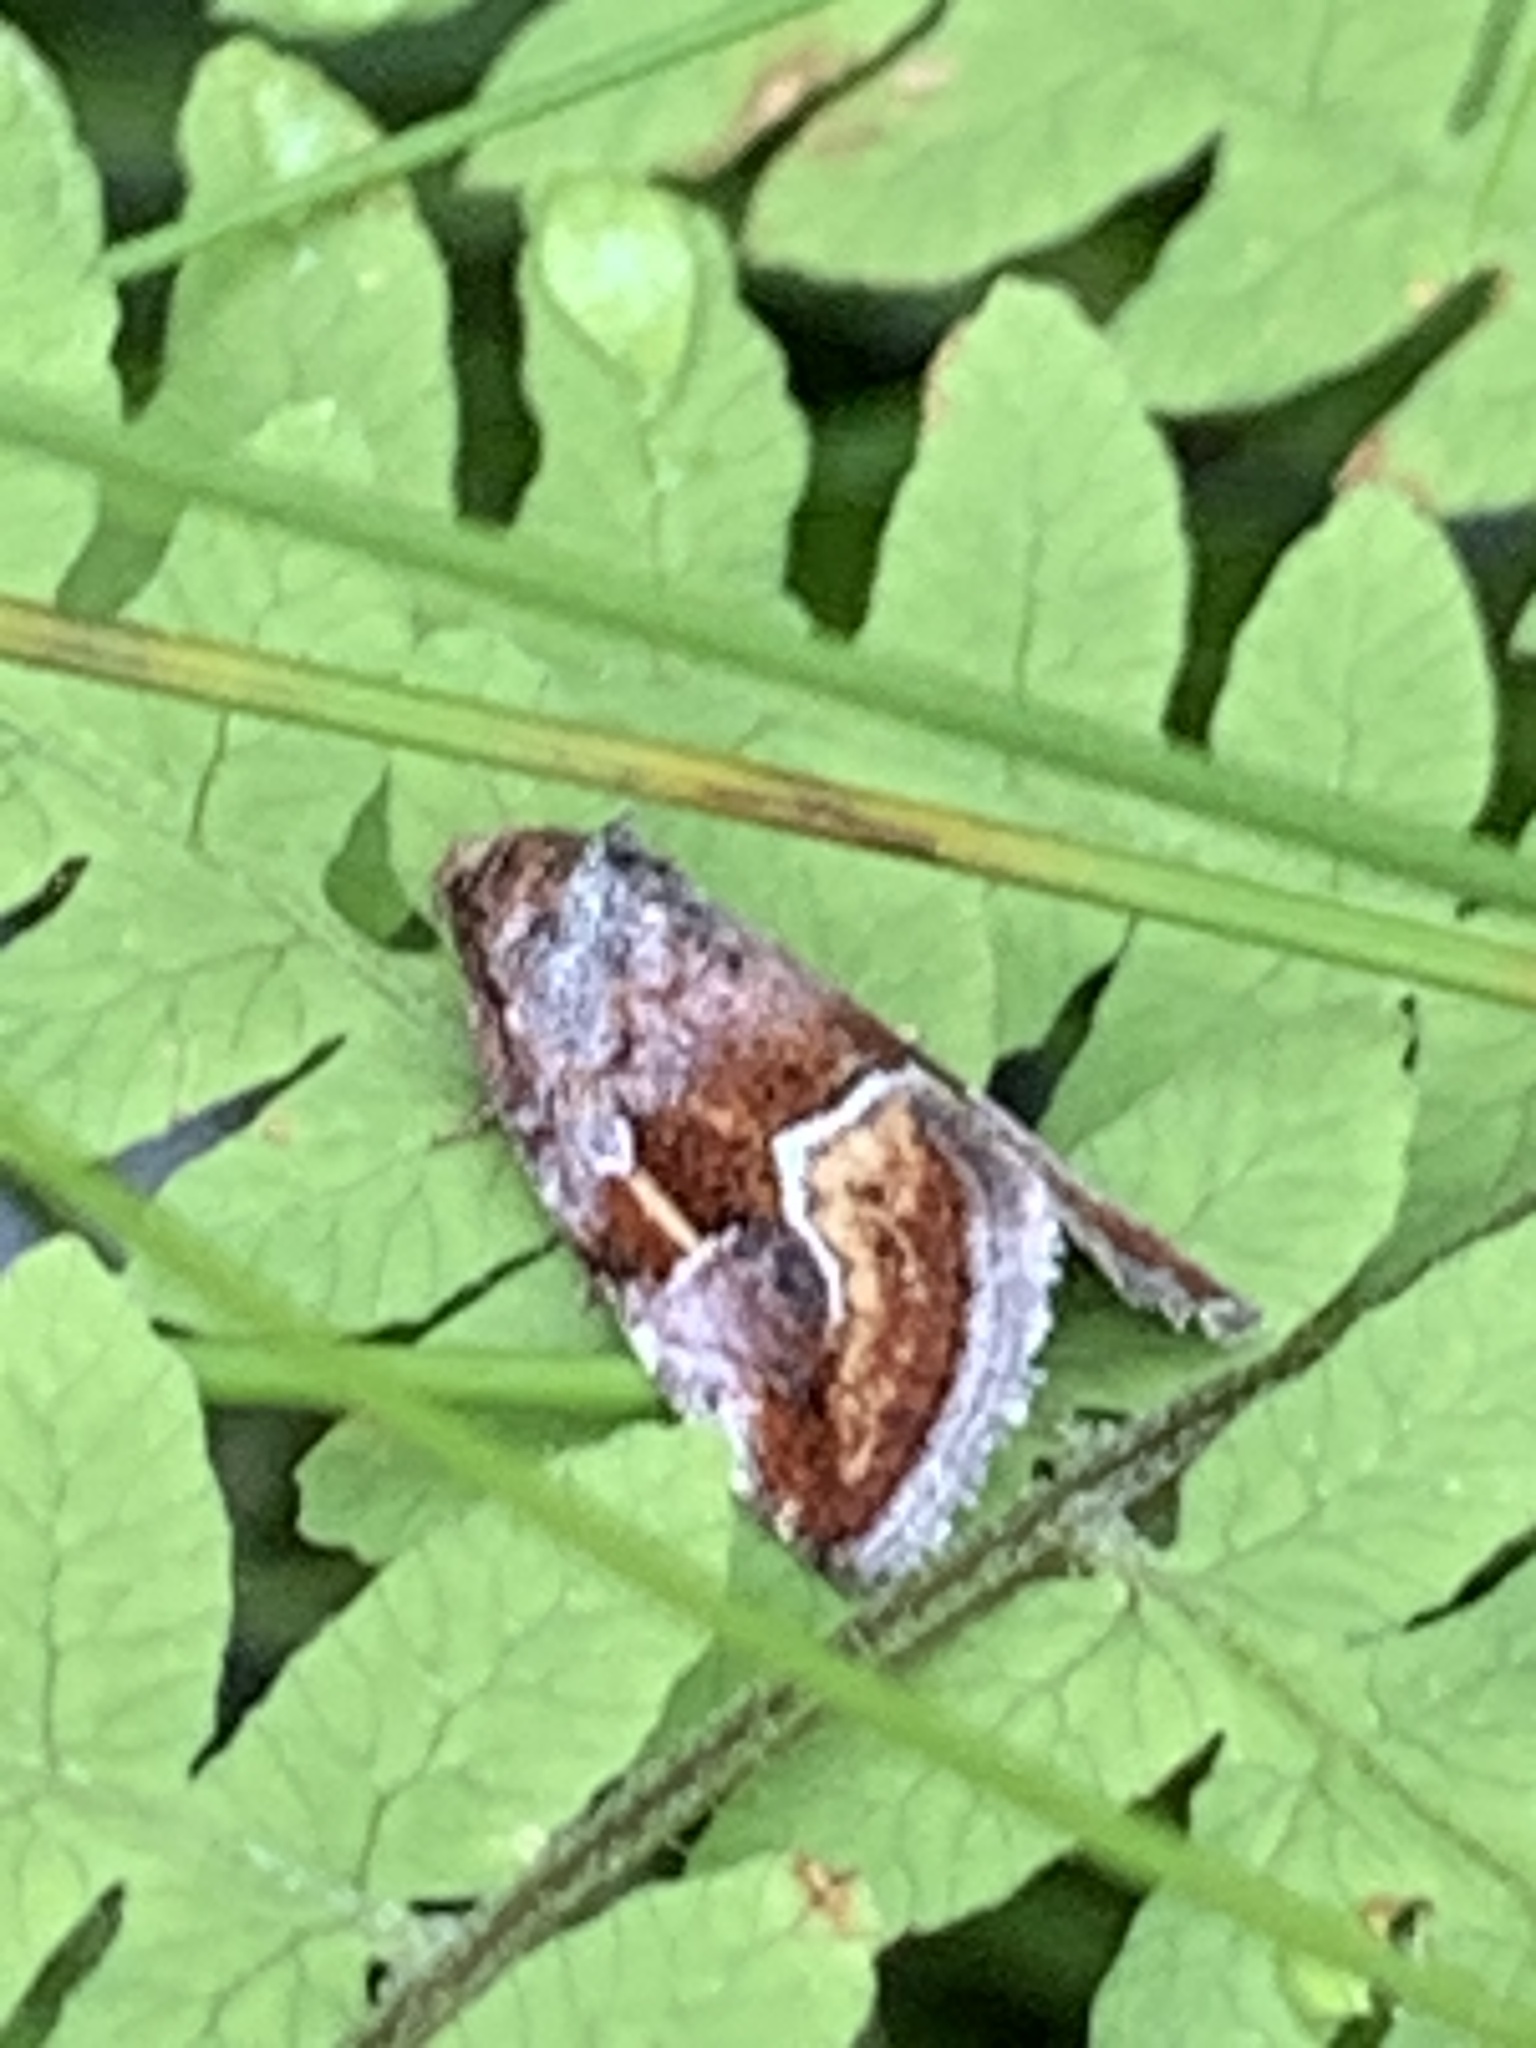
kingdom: Animalia
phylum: Arthropoda
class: Insecta
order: Lepidoptera
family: Noctuidae
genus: Deltote
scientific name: Deltote bellicula
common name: Bog glyph
